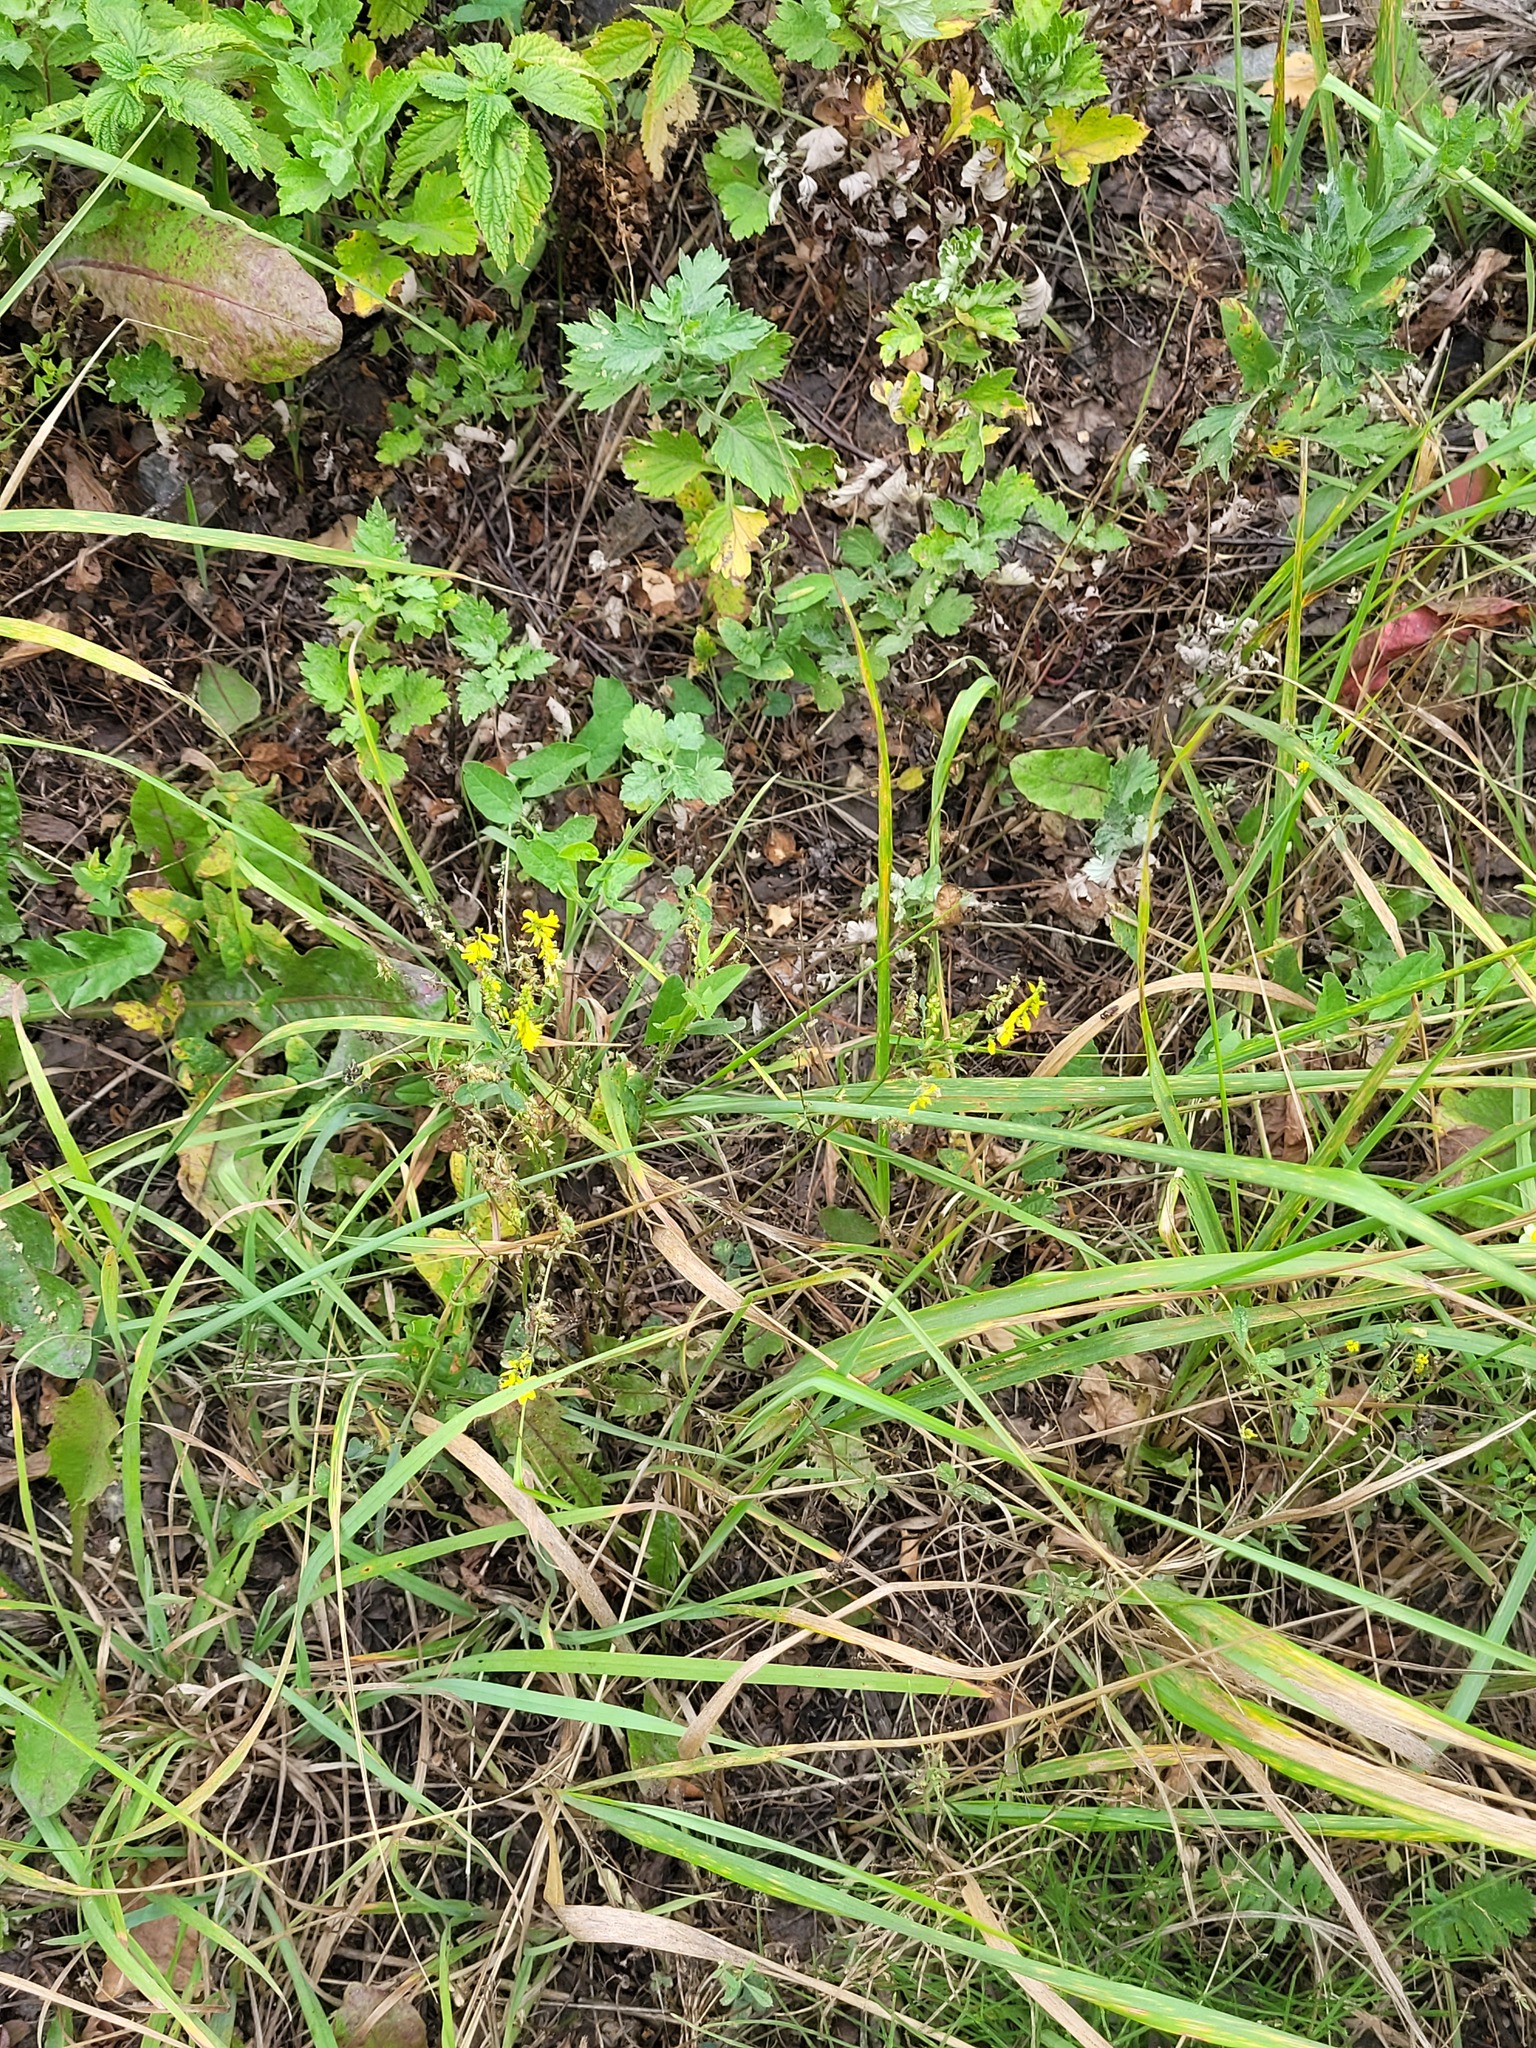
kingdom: Plantae
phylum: Tracheophyta
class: Magnoliopsida
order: Fabales
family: Fabaceae
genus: Melilotus
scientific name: Melilotus officinalis
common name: Sweetclover
